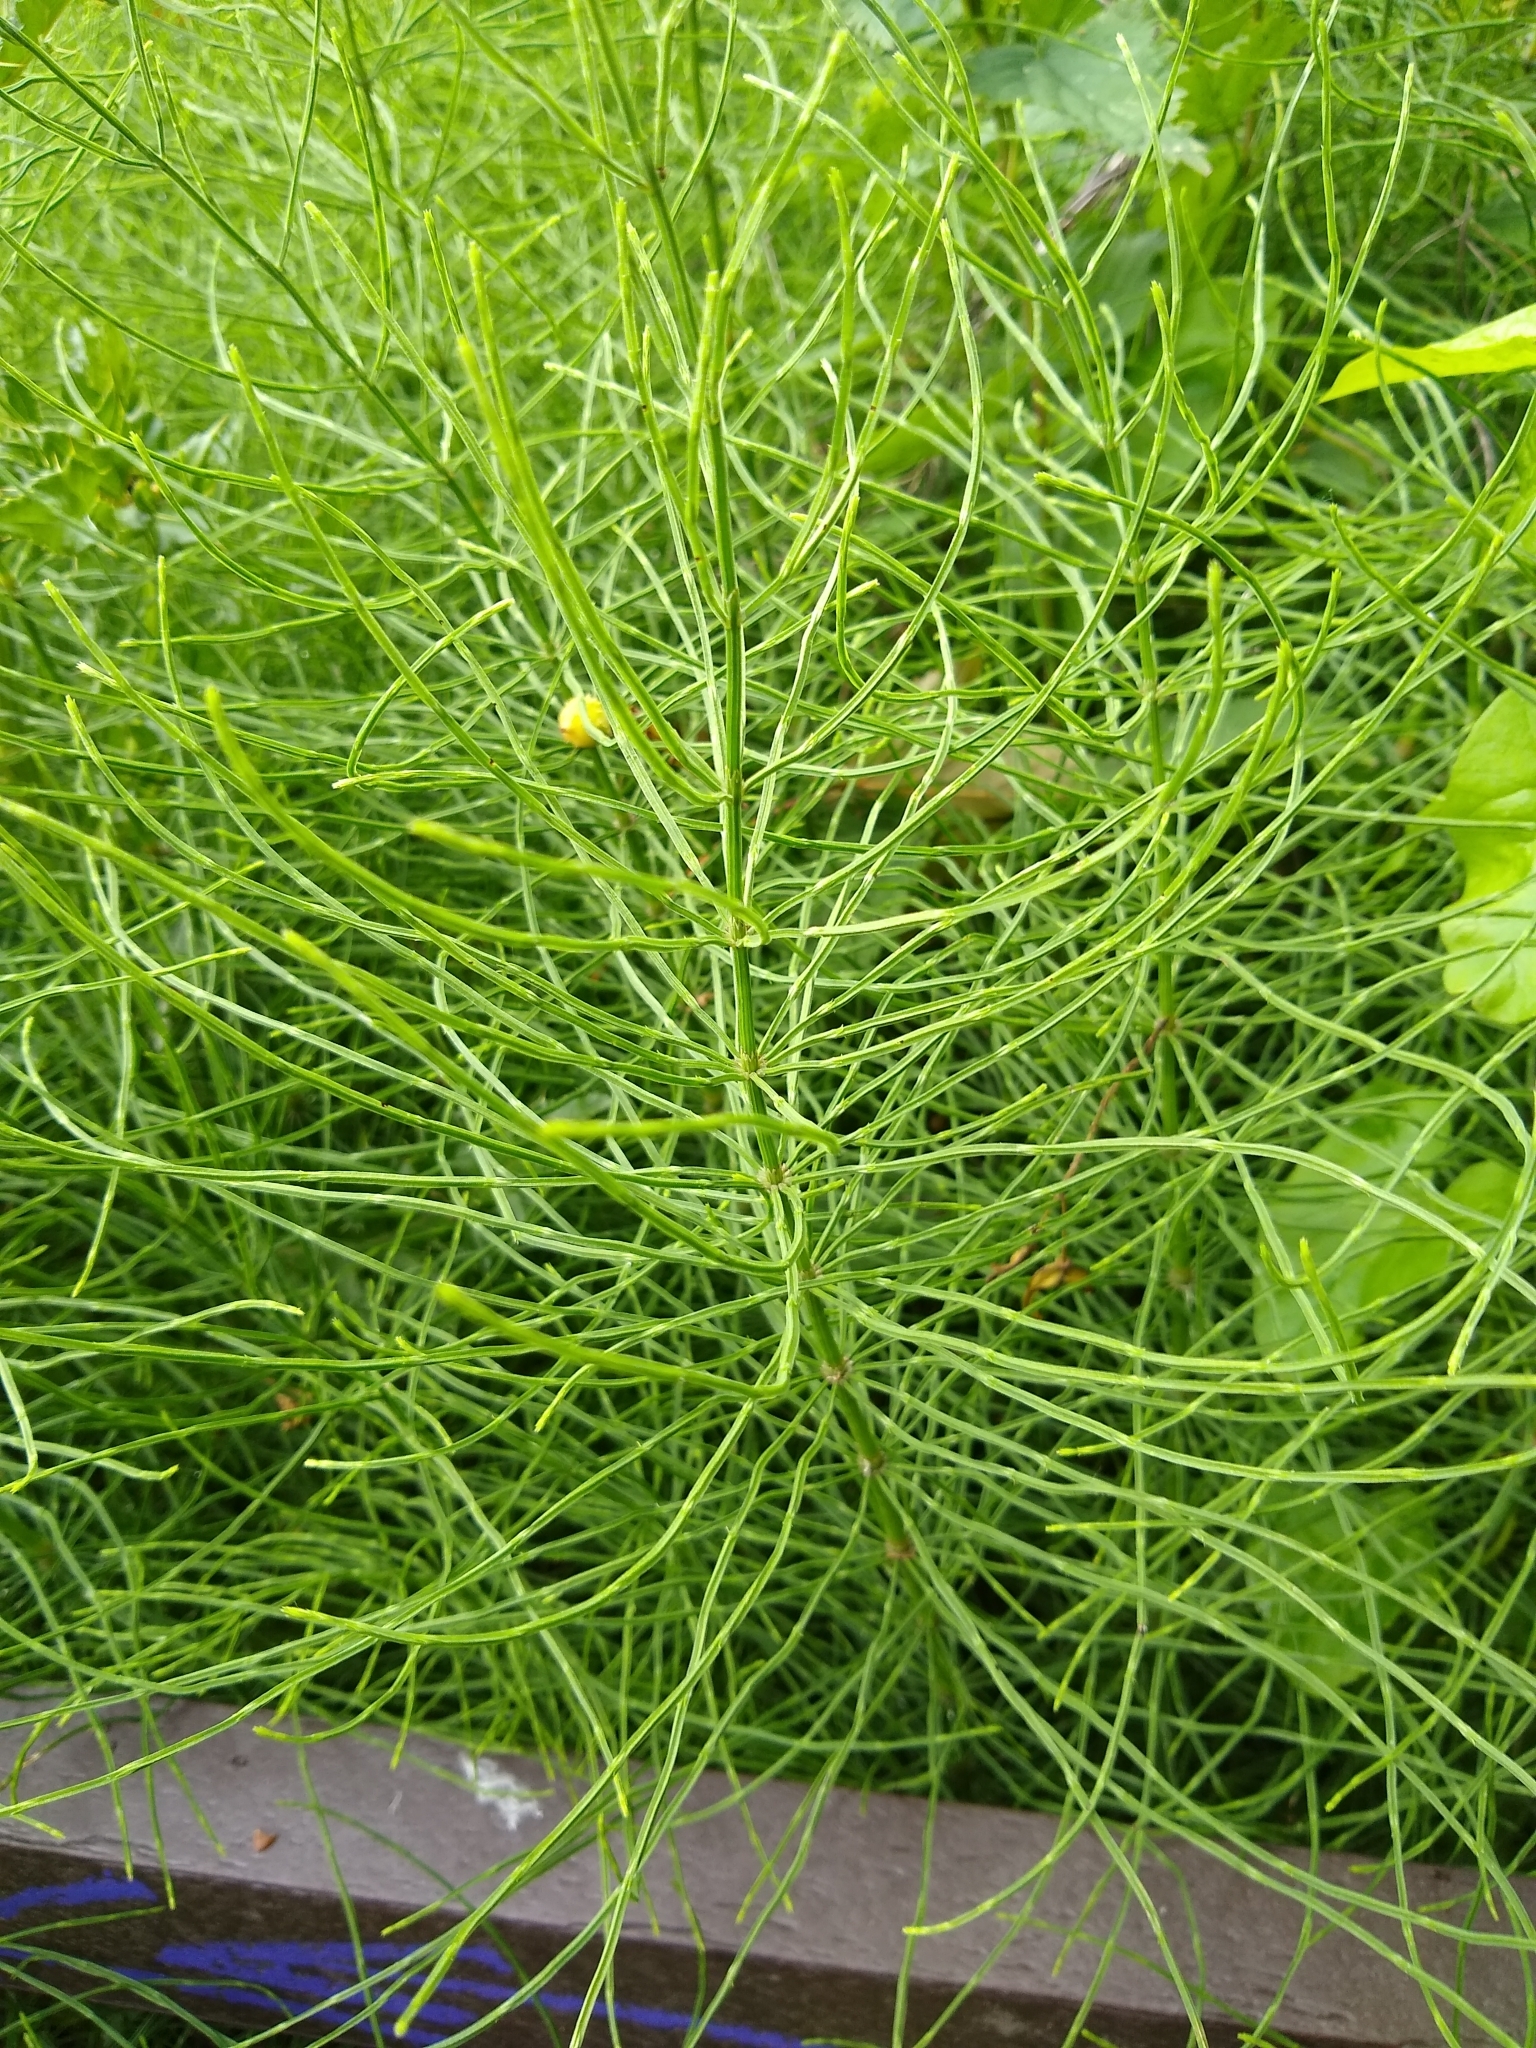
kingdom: Plantae
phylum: Tracheophyta
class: Polypodiopsida
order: Equisetales
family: Equisetaceae
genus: Equisetum
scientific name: Equisetum arvense
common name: Field horsetail
